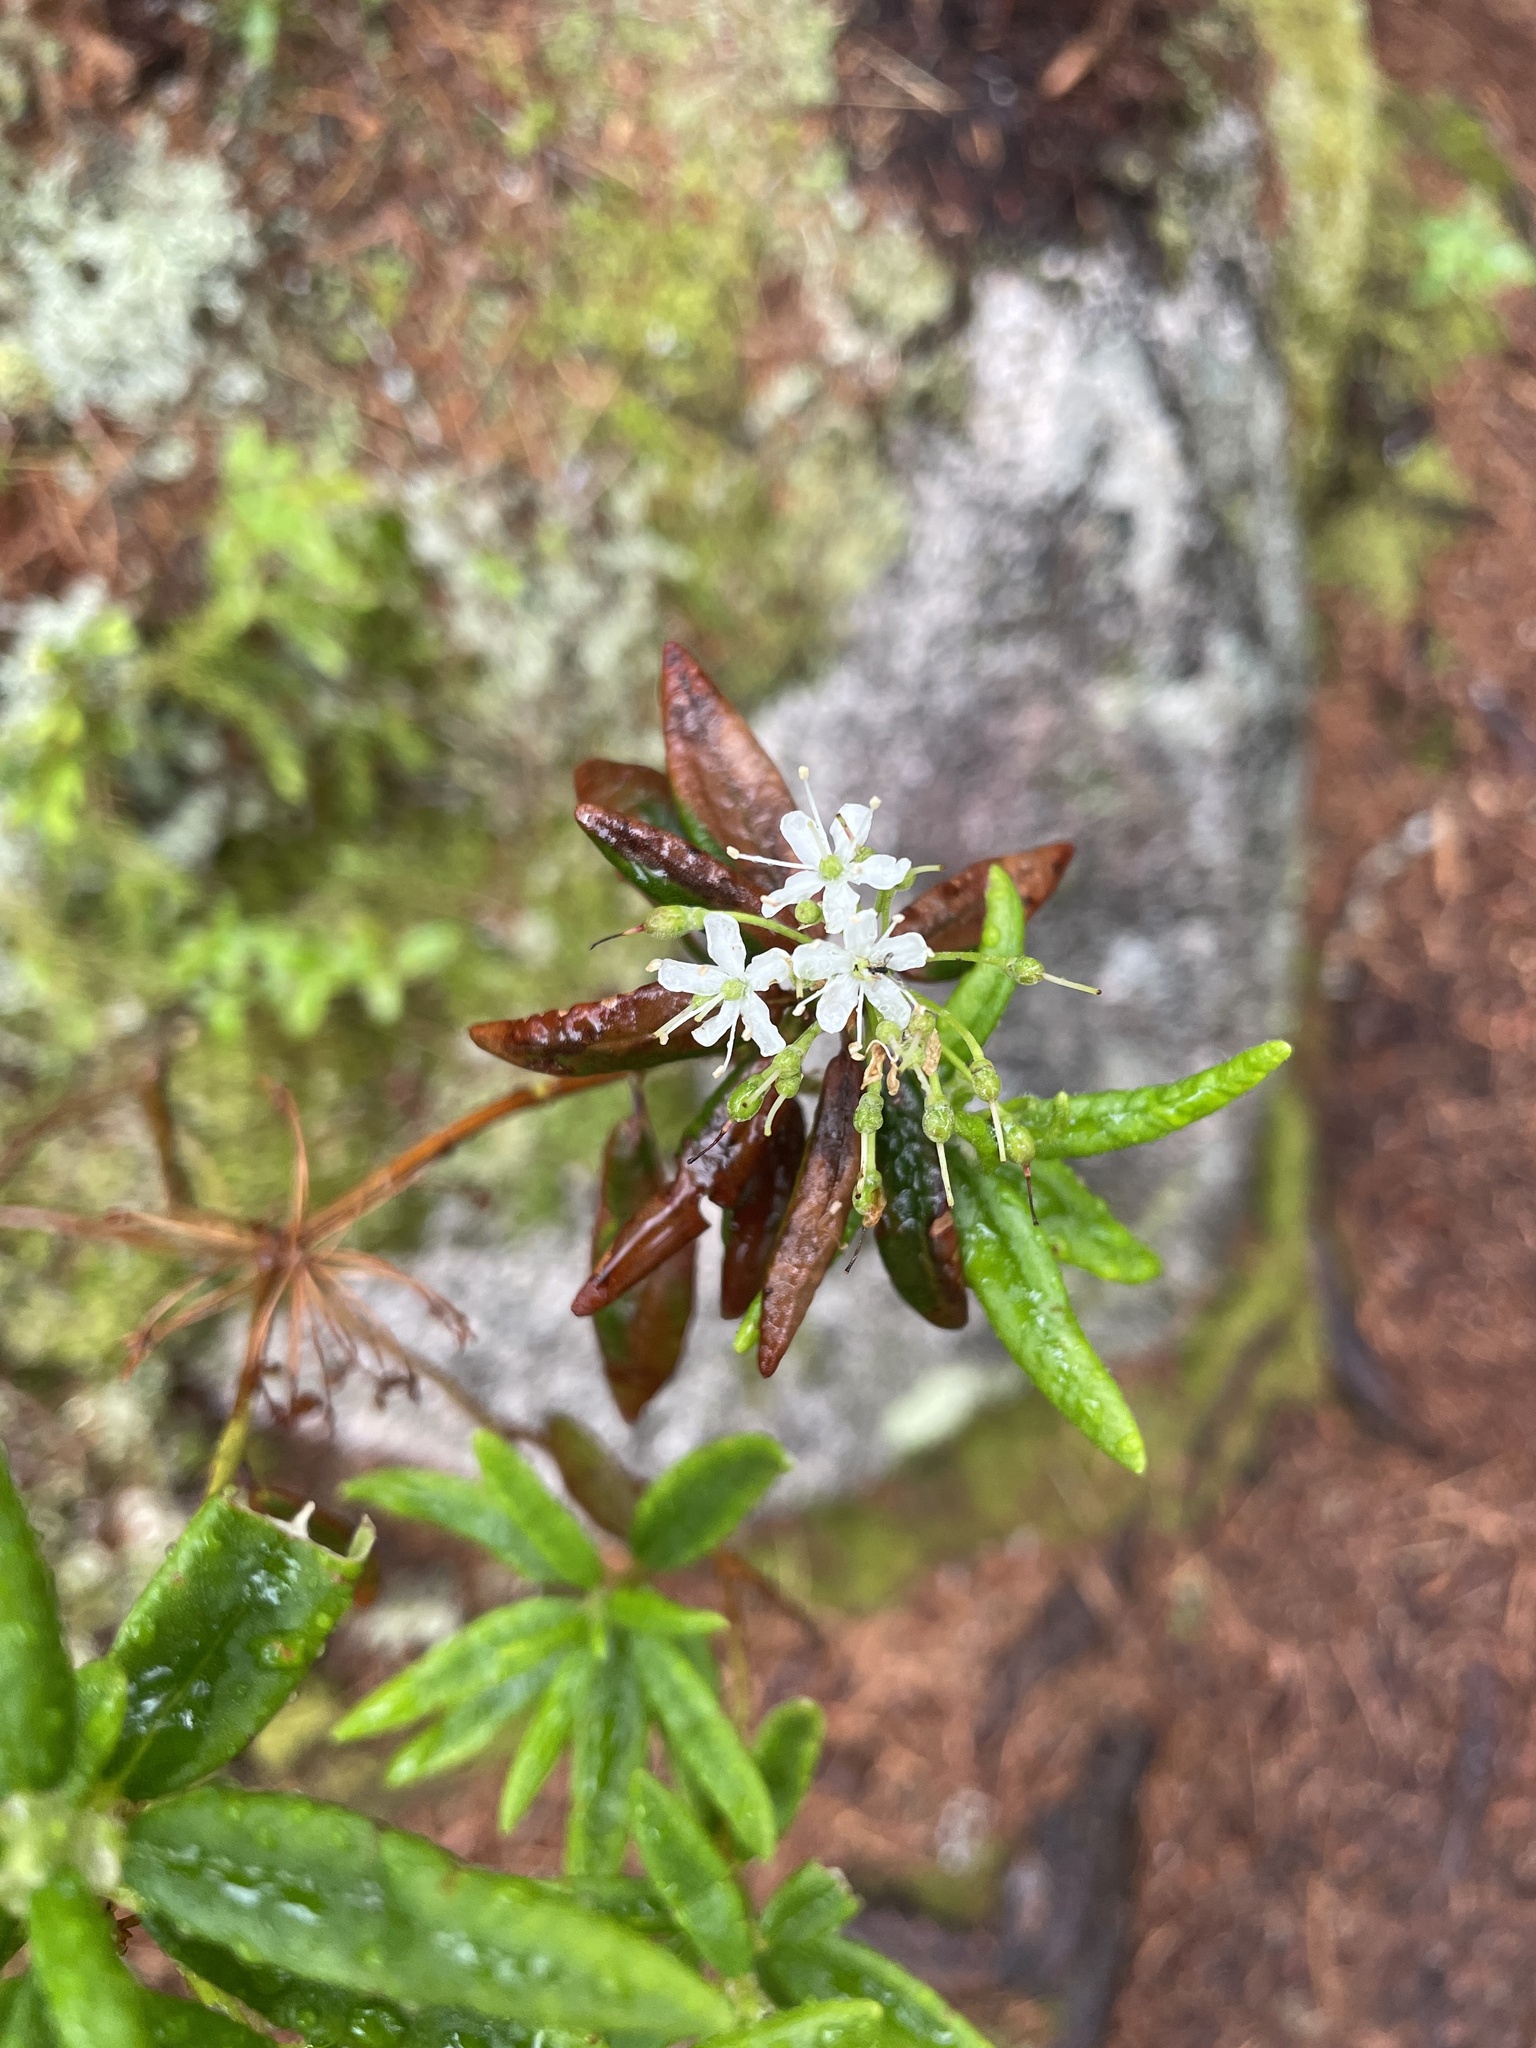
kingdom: Plantae
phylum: Tracheophyta
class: Magnoliopsida
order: Ericales
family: Ericaceae
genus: Rhododendron
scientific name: Rhododendron groenlandicum
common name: Bog labrador tea
